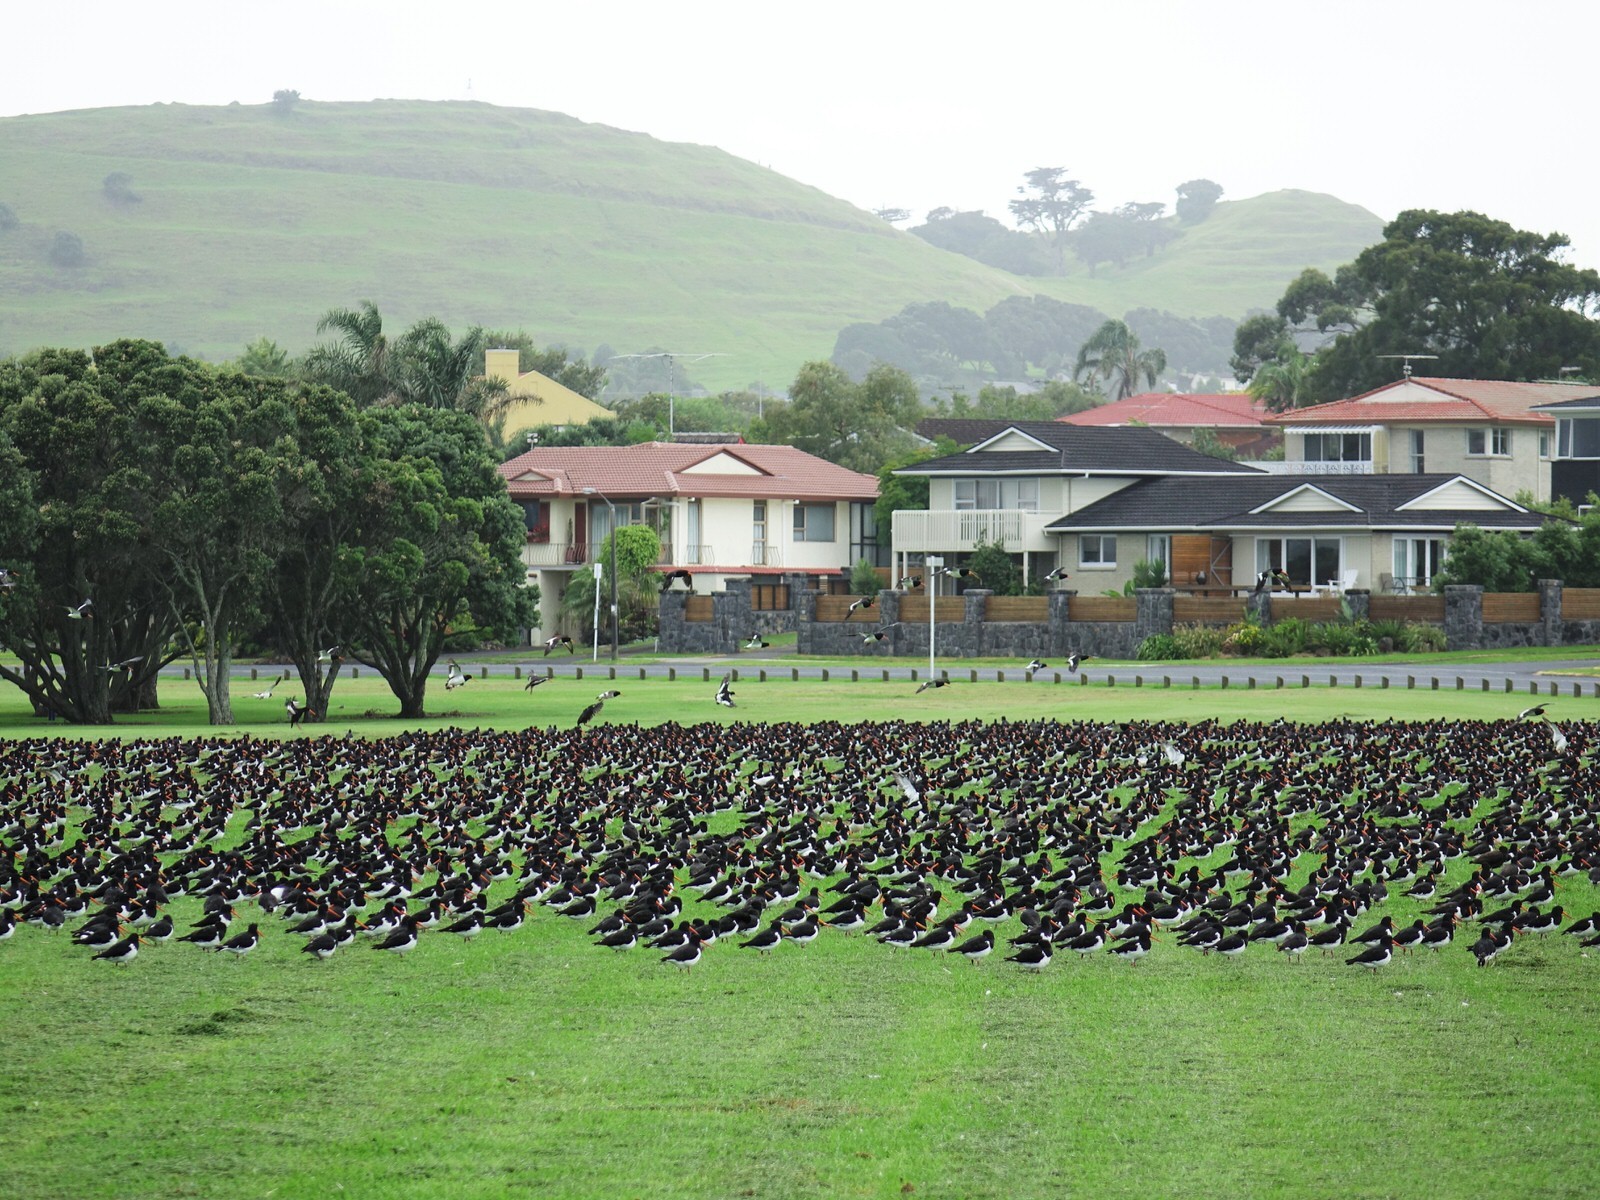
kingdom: Animalia
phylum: Chordata
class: Aves
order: Charadriiformes
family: Haematopodidae
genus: Haematopus
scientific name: Haematopus finschi
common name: South island oystercatcher
